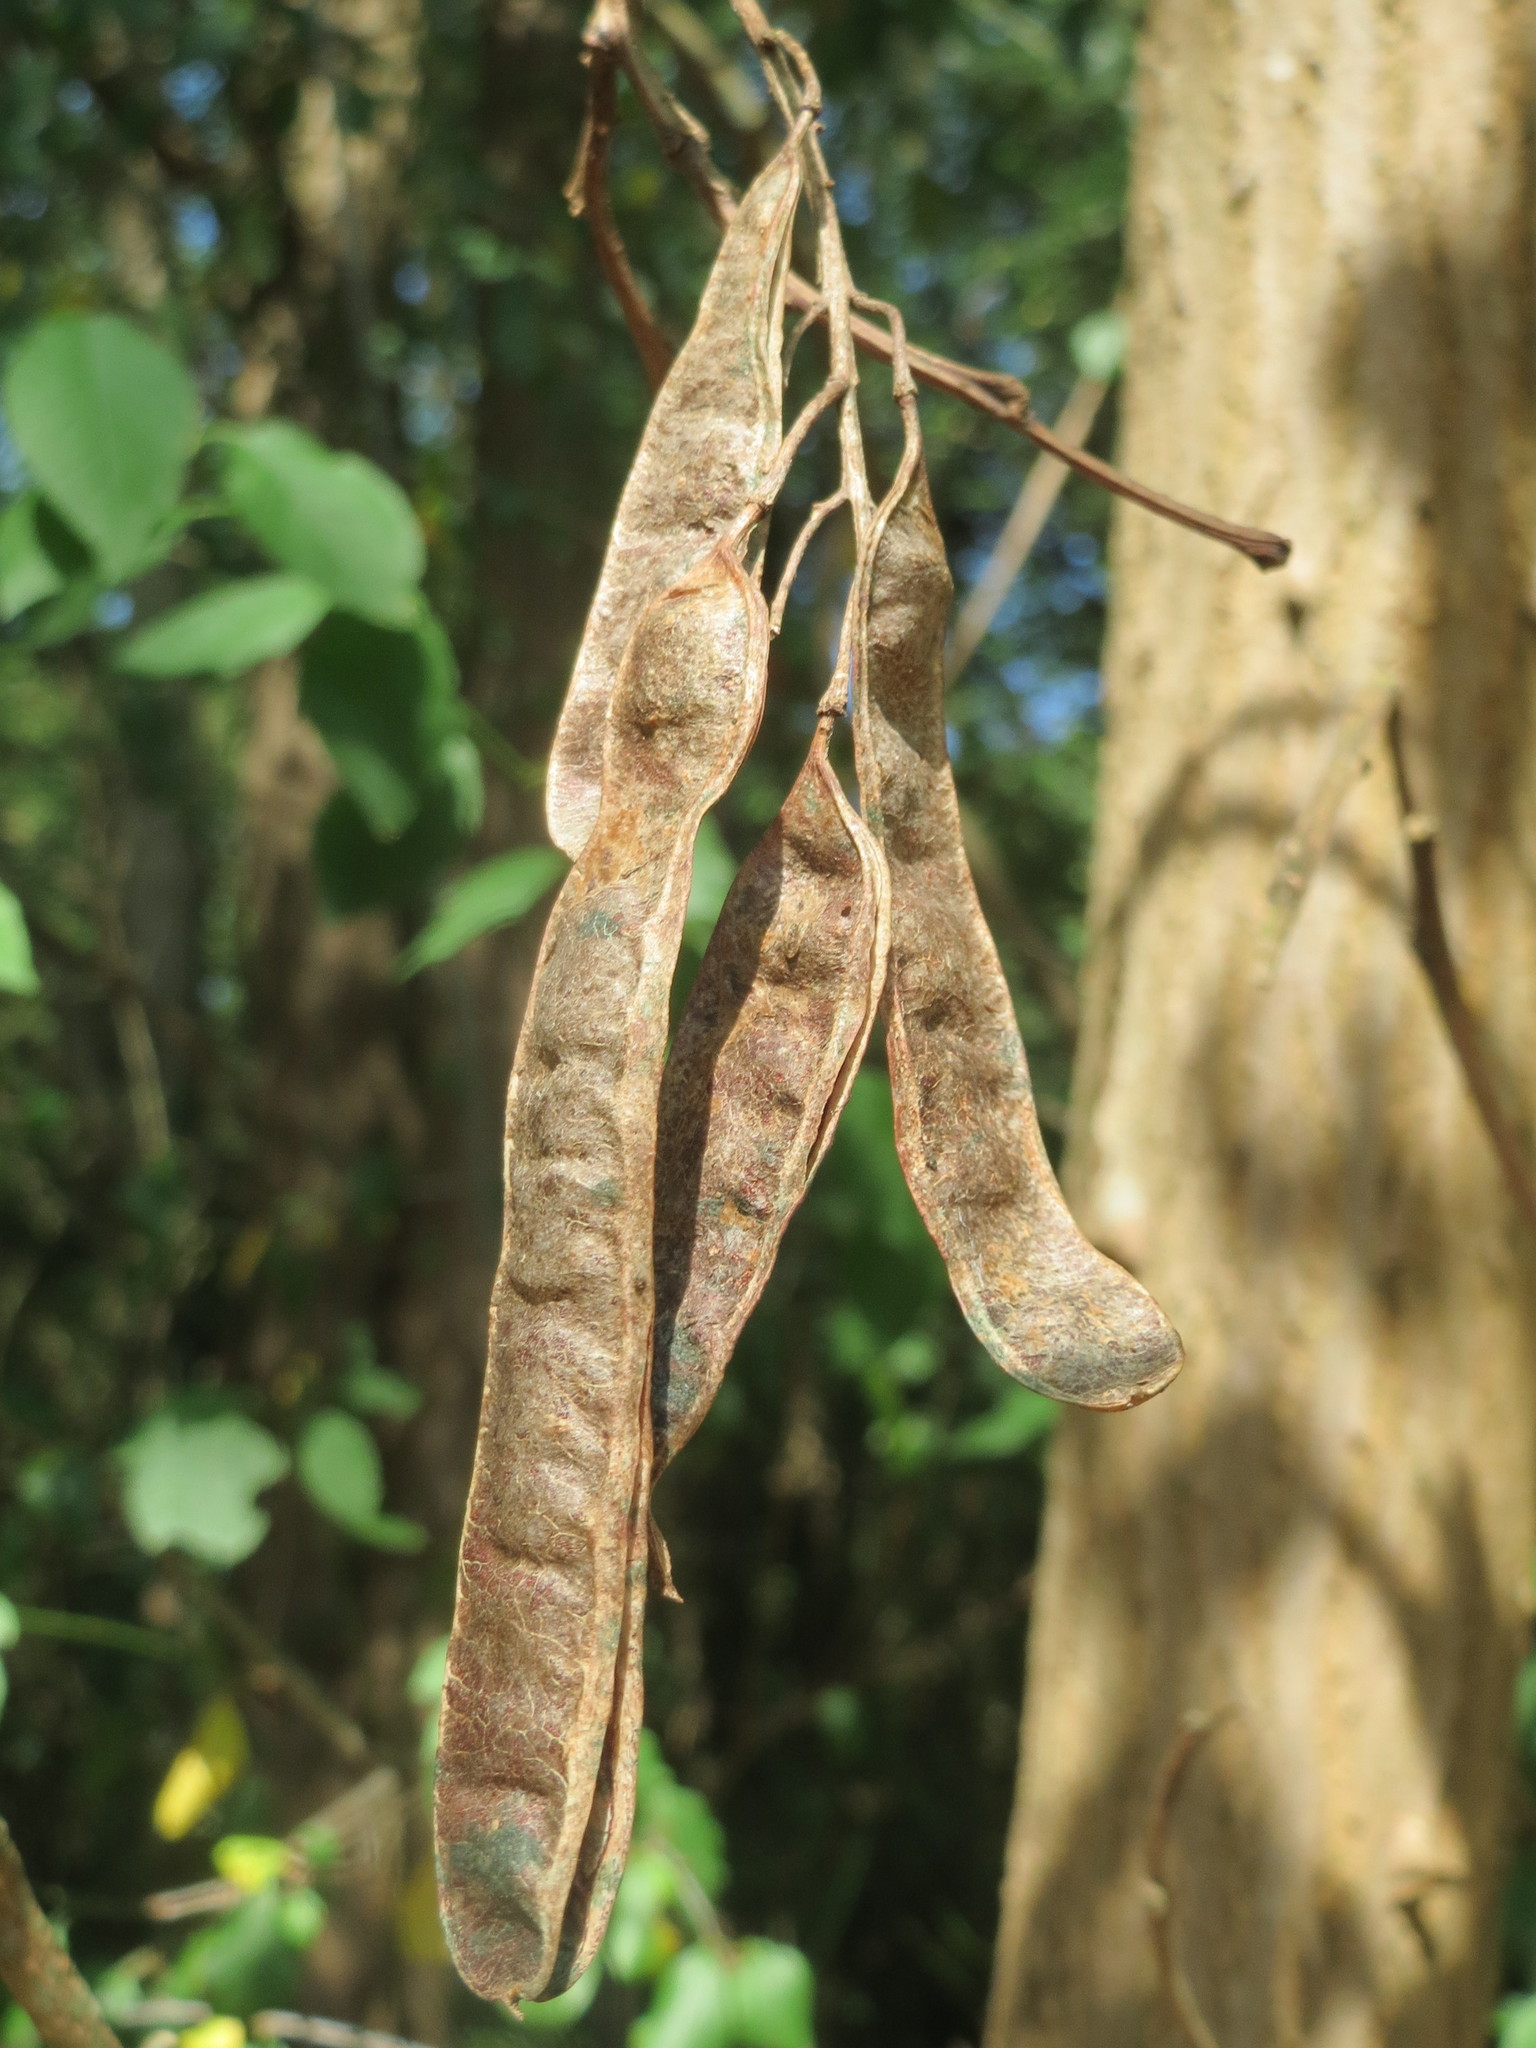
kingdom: Plantae
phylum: Tracheophyta
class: Magnoliopsida
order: Fabales
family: Fabaceae
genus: Robinia
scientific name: Robinia pseudoacacia
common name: Black locust
